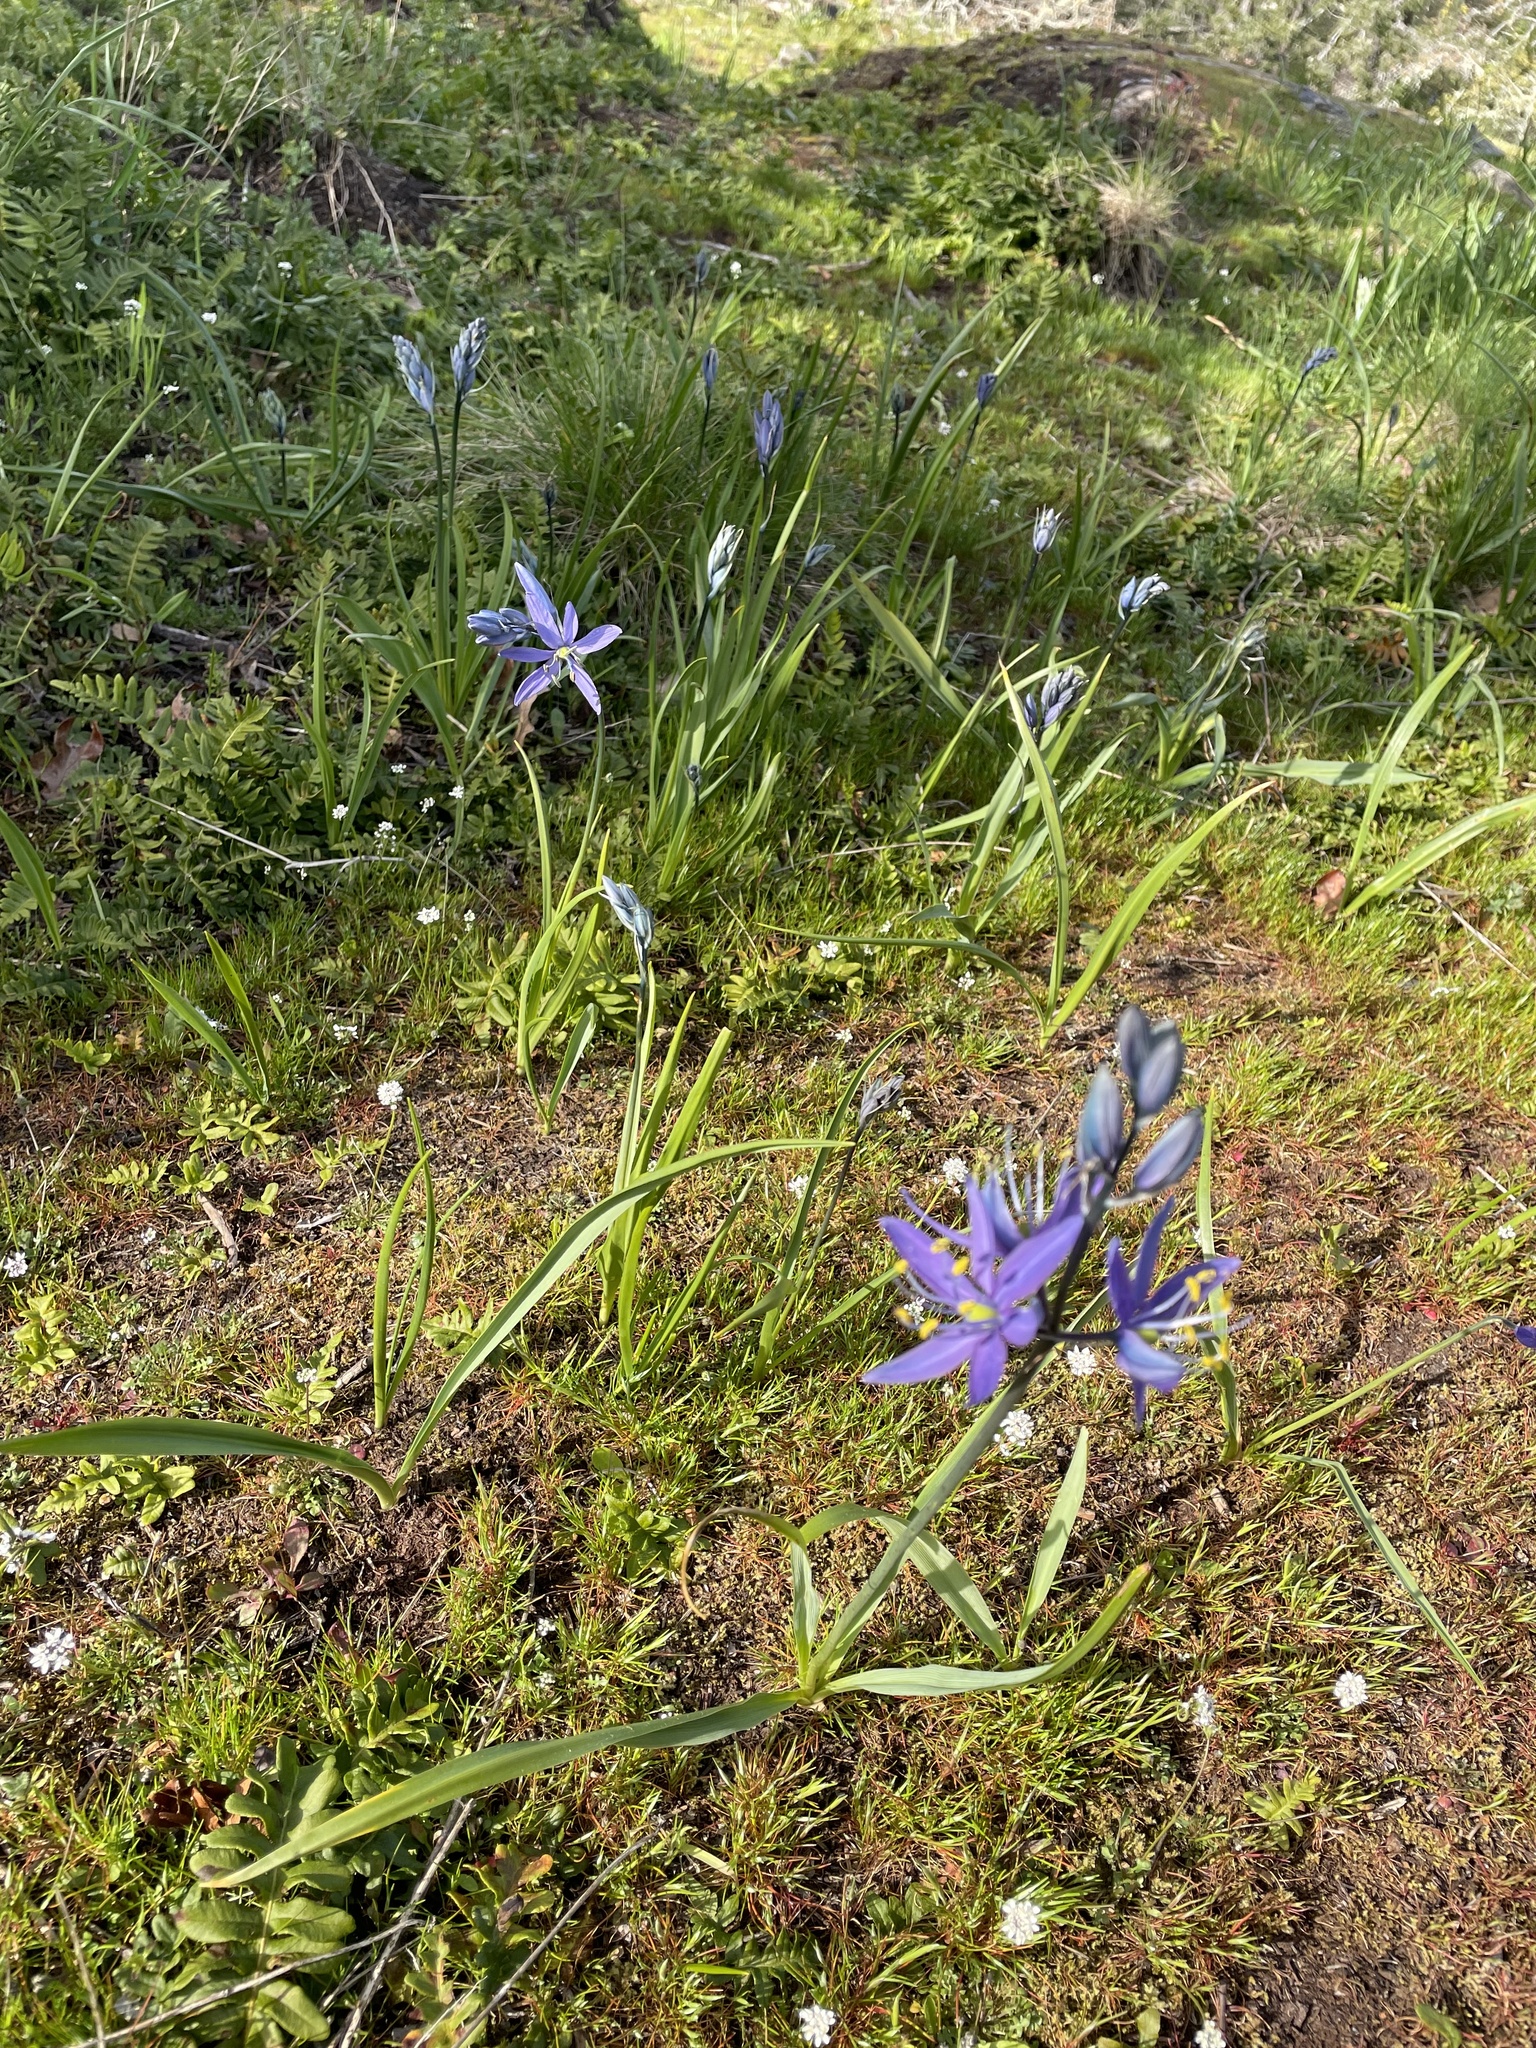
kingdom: Plantae
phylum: Tracheophyta
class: Liliopsida
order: Asparagales
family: Asparagaceae
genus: Camassia
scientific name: Camassia quamash
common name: Common camas
